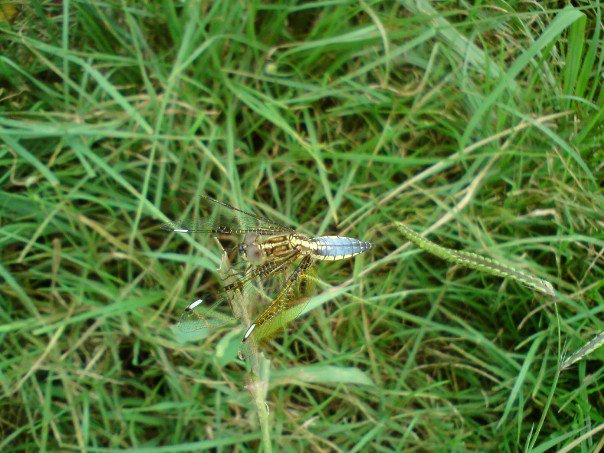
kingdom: Animalia
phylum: Arthropoda
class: Insecta
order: Odonata
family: Libellulidae
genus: Palpopleura
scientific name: Palpopleura sexmaculata
